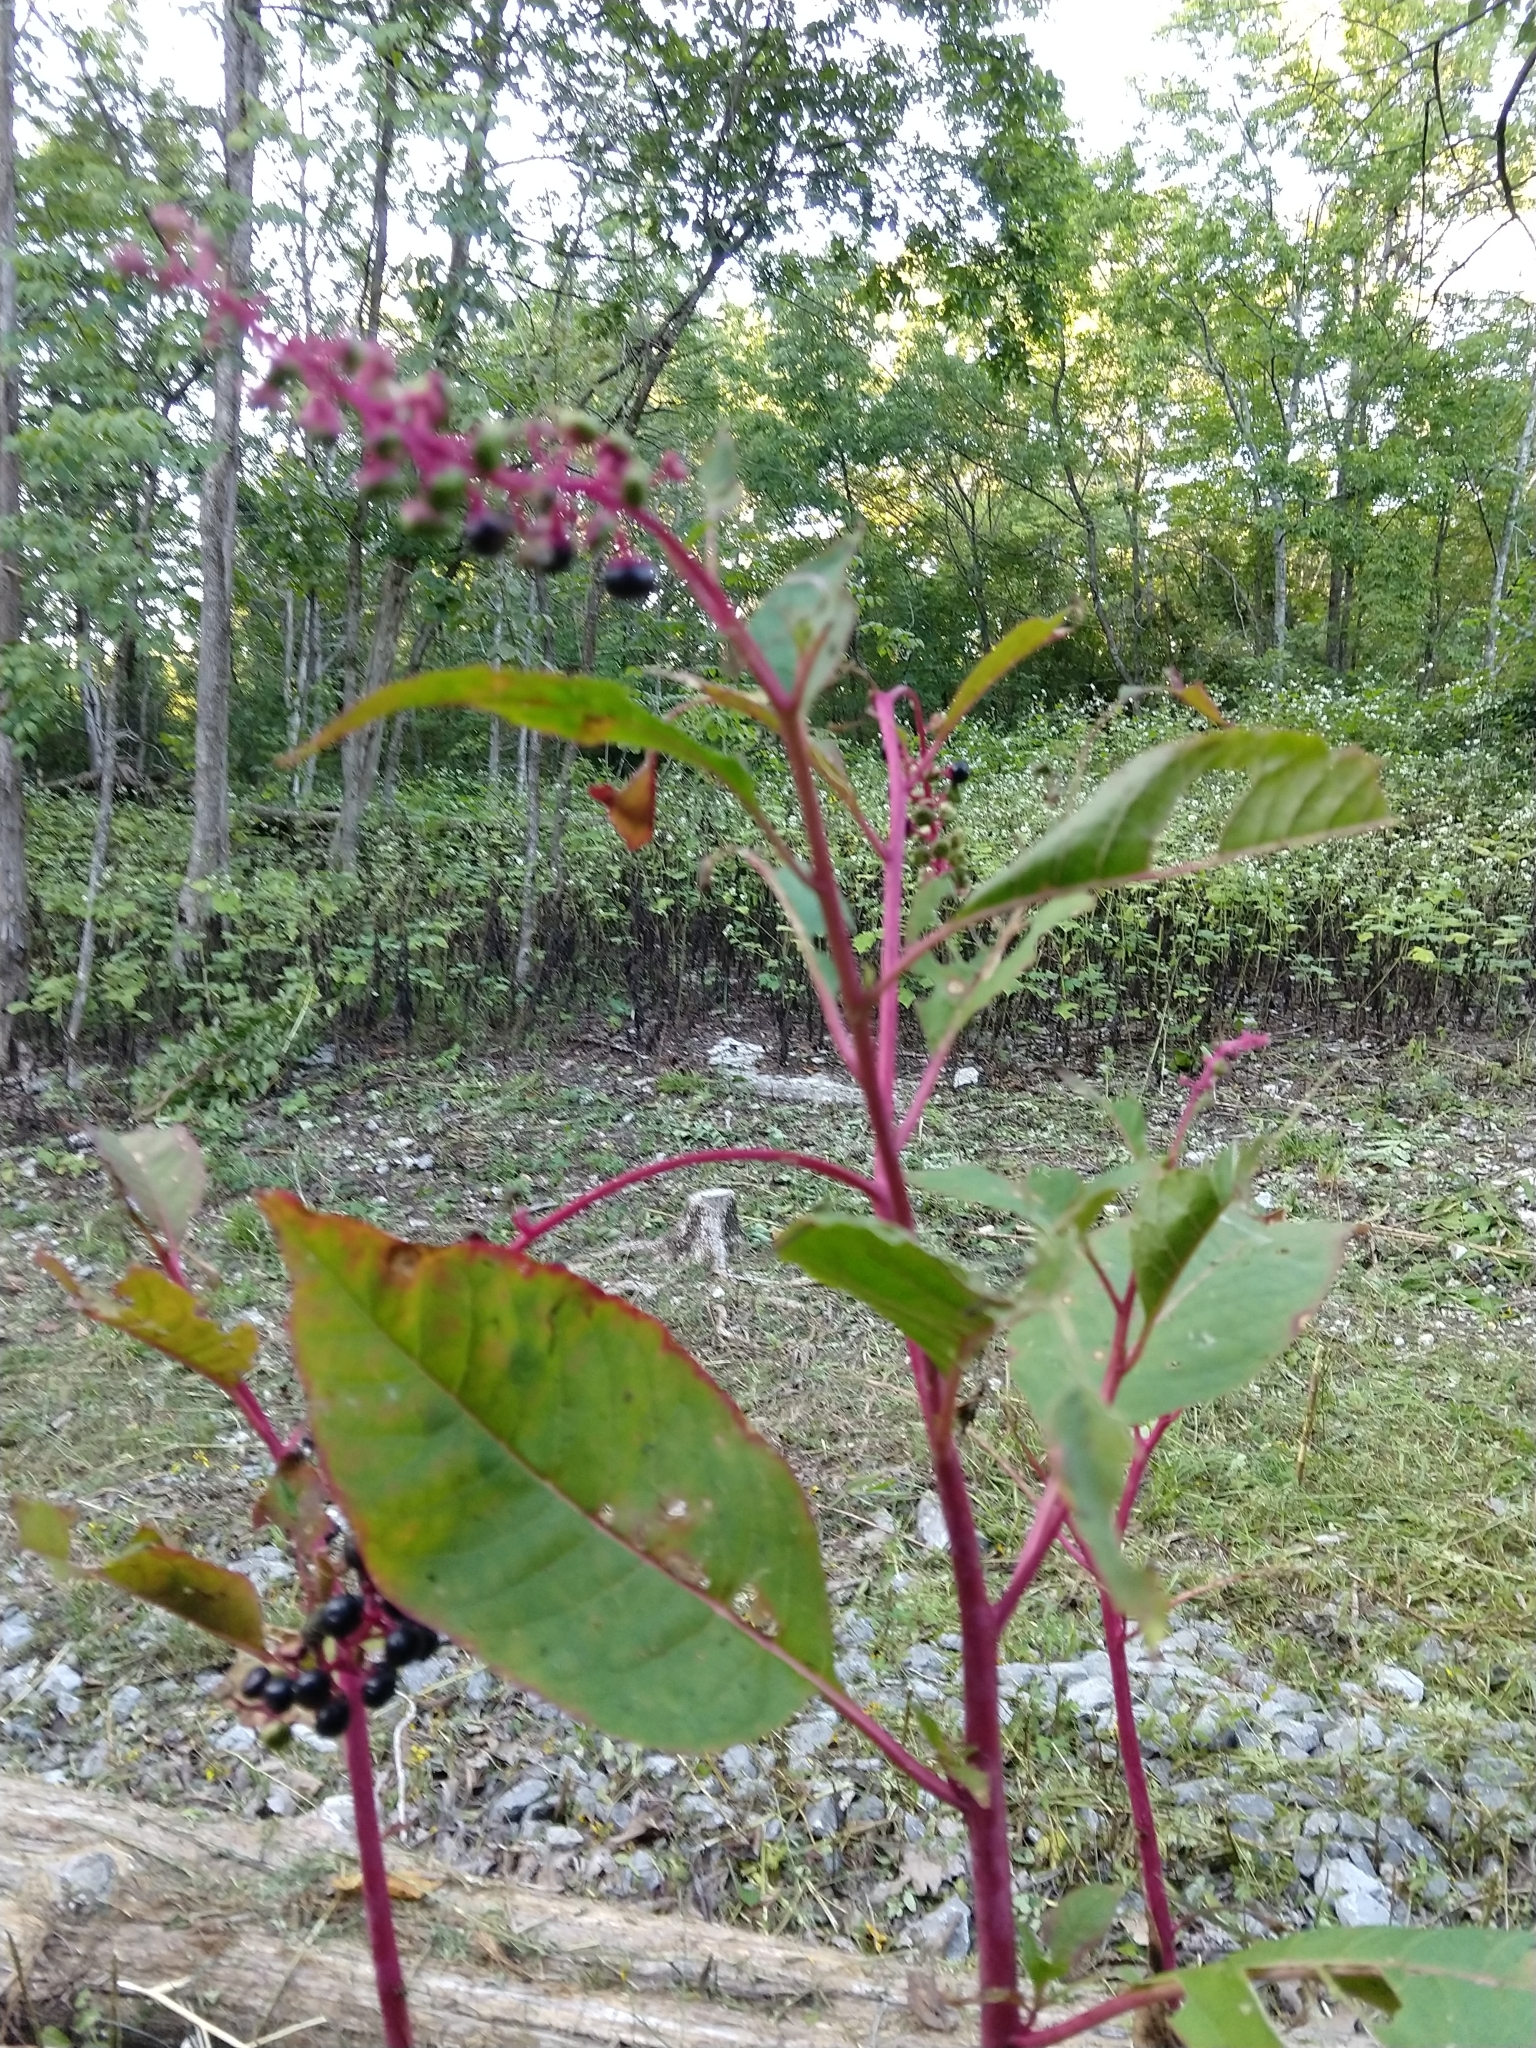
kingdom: Plantae
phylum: Tracheophyta
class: Magnoliopsida
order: Caryophyllales
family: Phytolaccaceae
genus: Phytolacca
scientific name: Phytolacca americana
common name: American pokeweed
